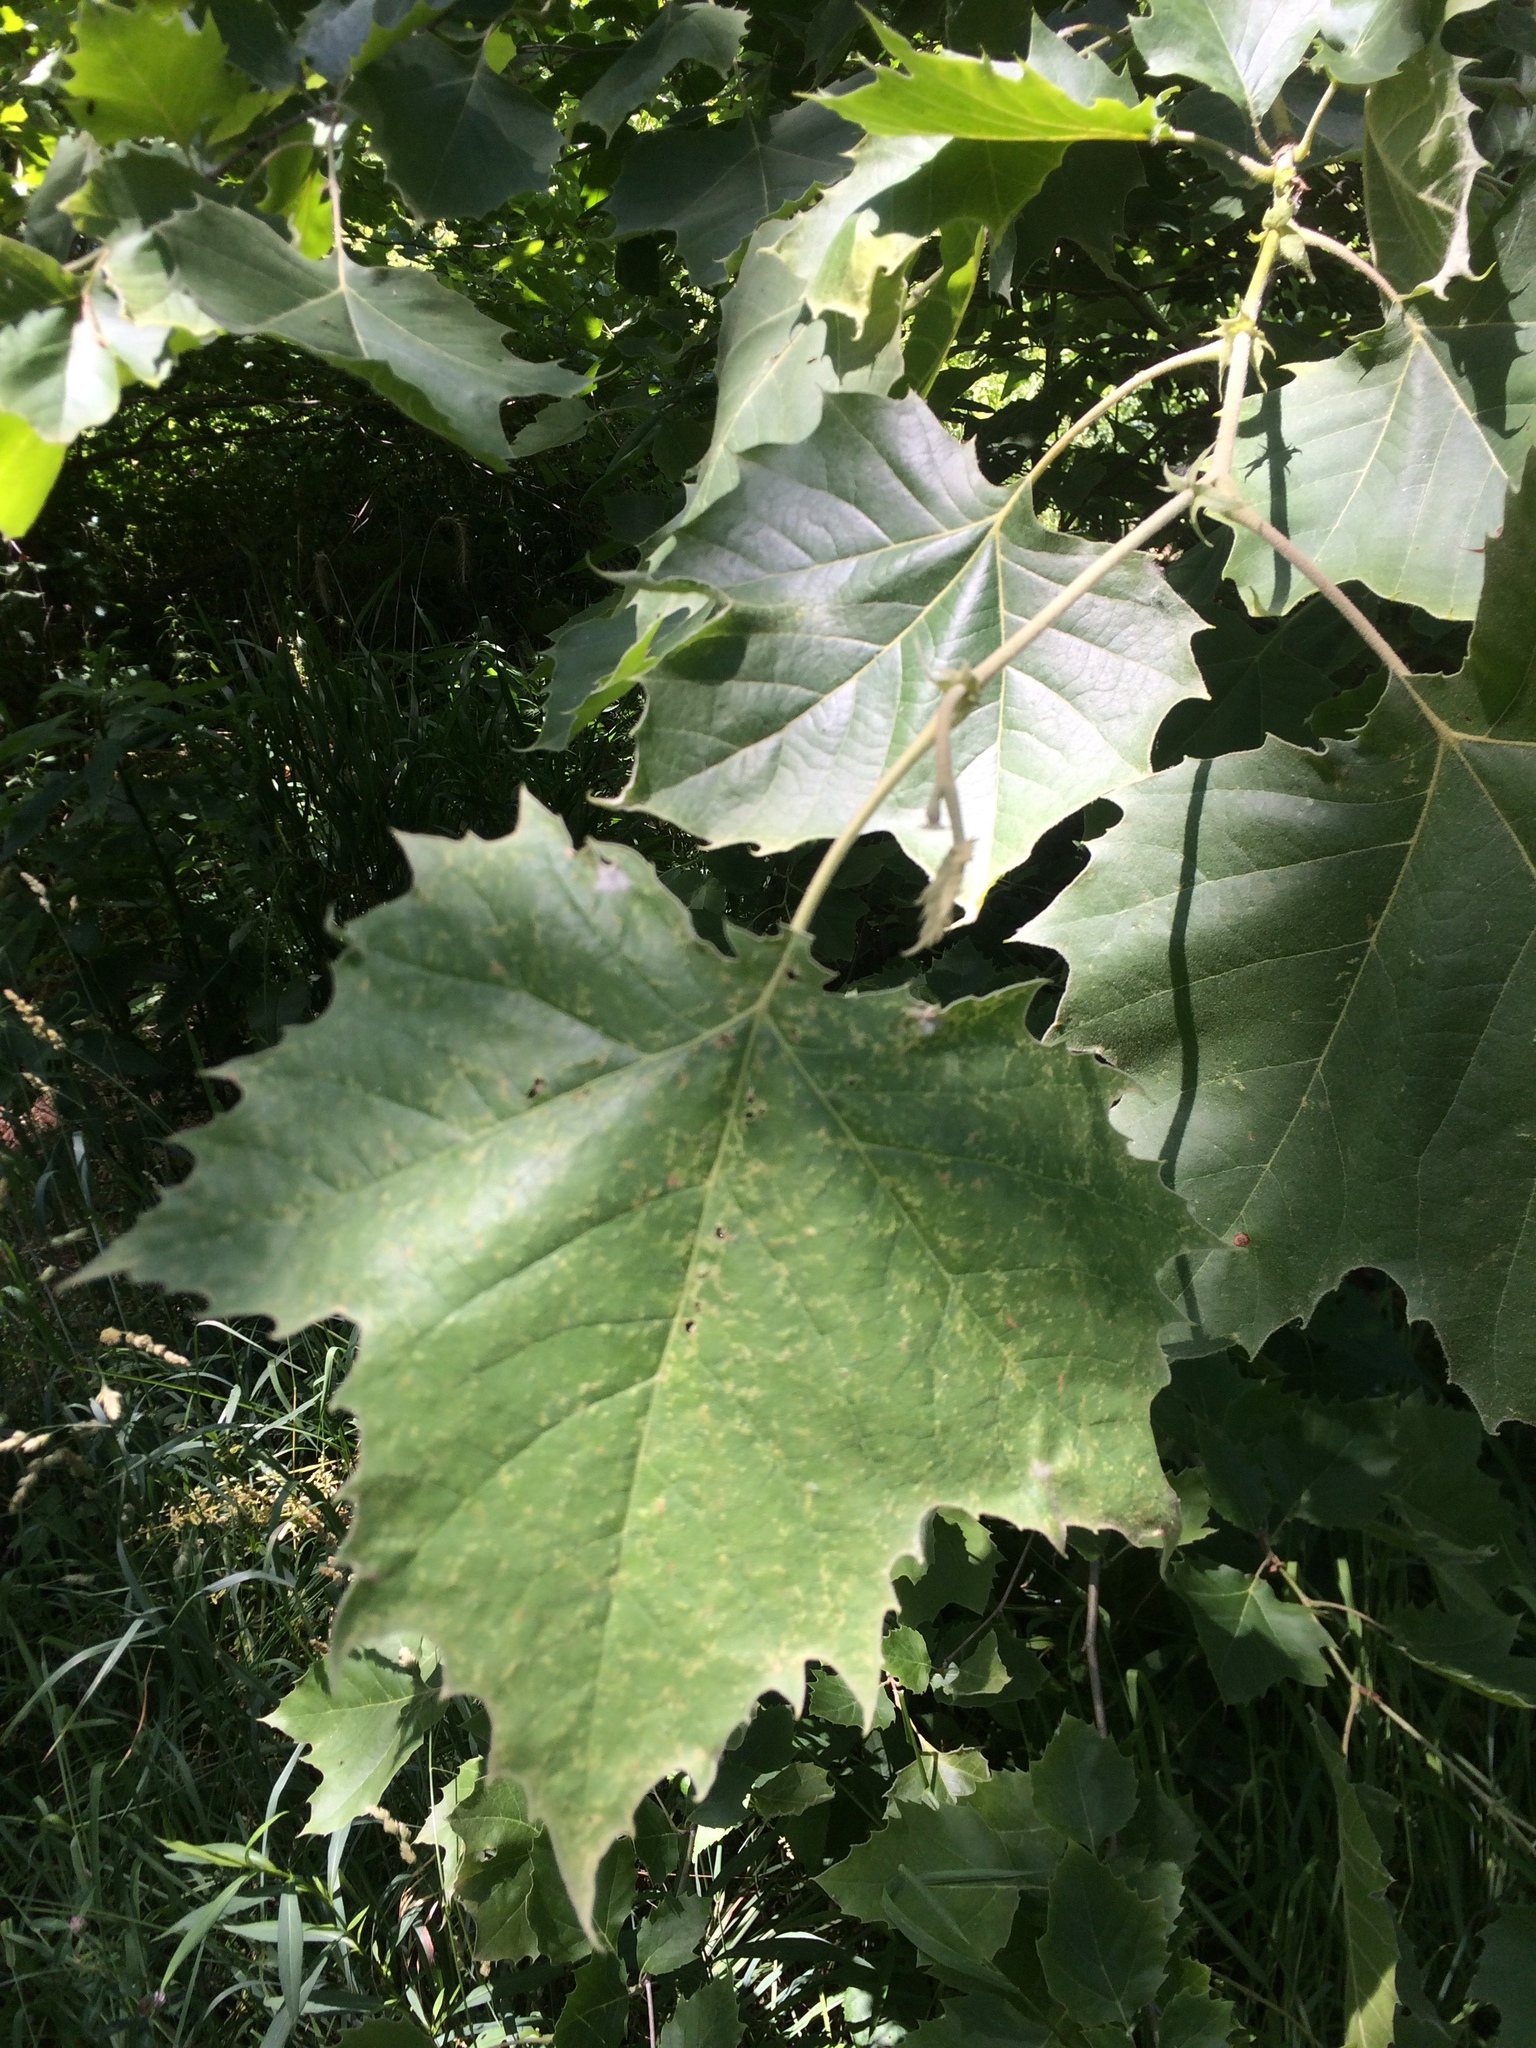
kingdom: Plantae
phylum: Tracheophyta
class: Magnoliopsida
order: Proteales
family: Platanaceae
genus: Platanus
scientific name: Platanus occidentalis
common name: American sycamore
